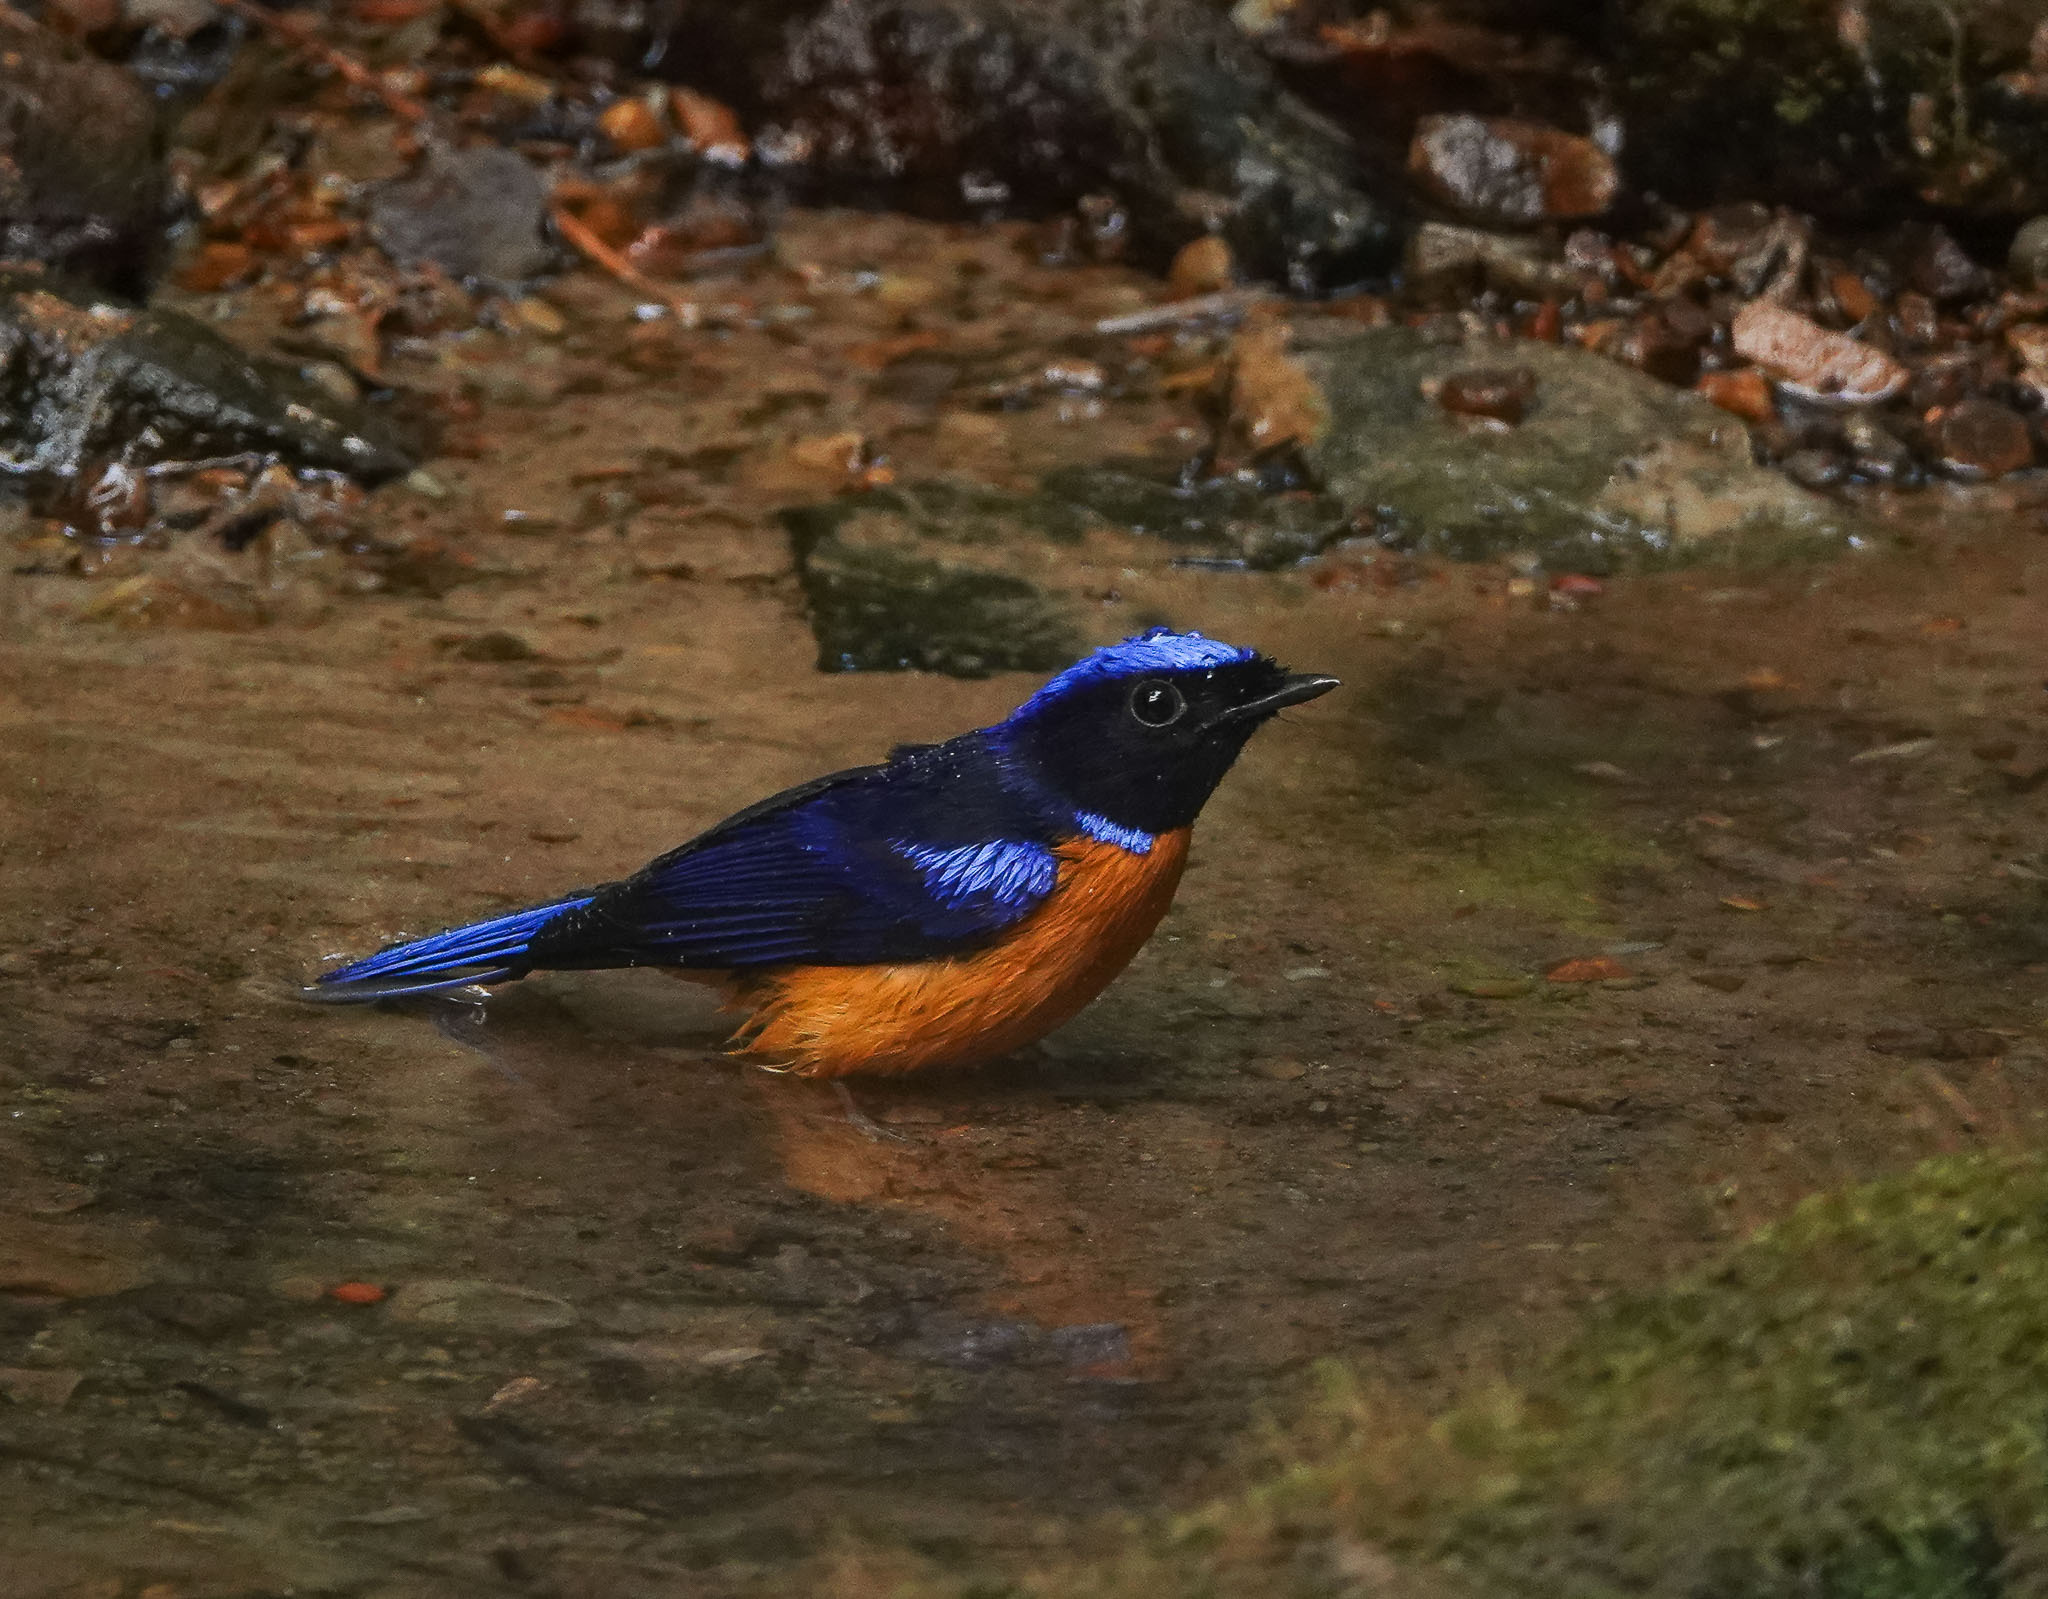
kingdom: Animalia
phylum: Chordata
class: Aves
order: Passeriformes
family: Muscicapidae
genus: Niltava
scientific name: Niltava sundara
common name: Rufous-bellied niltava
